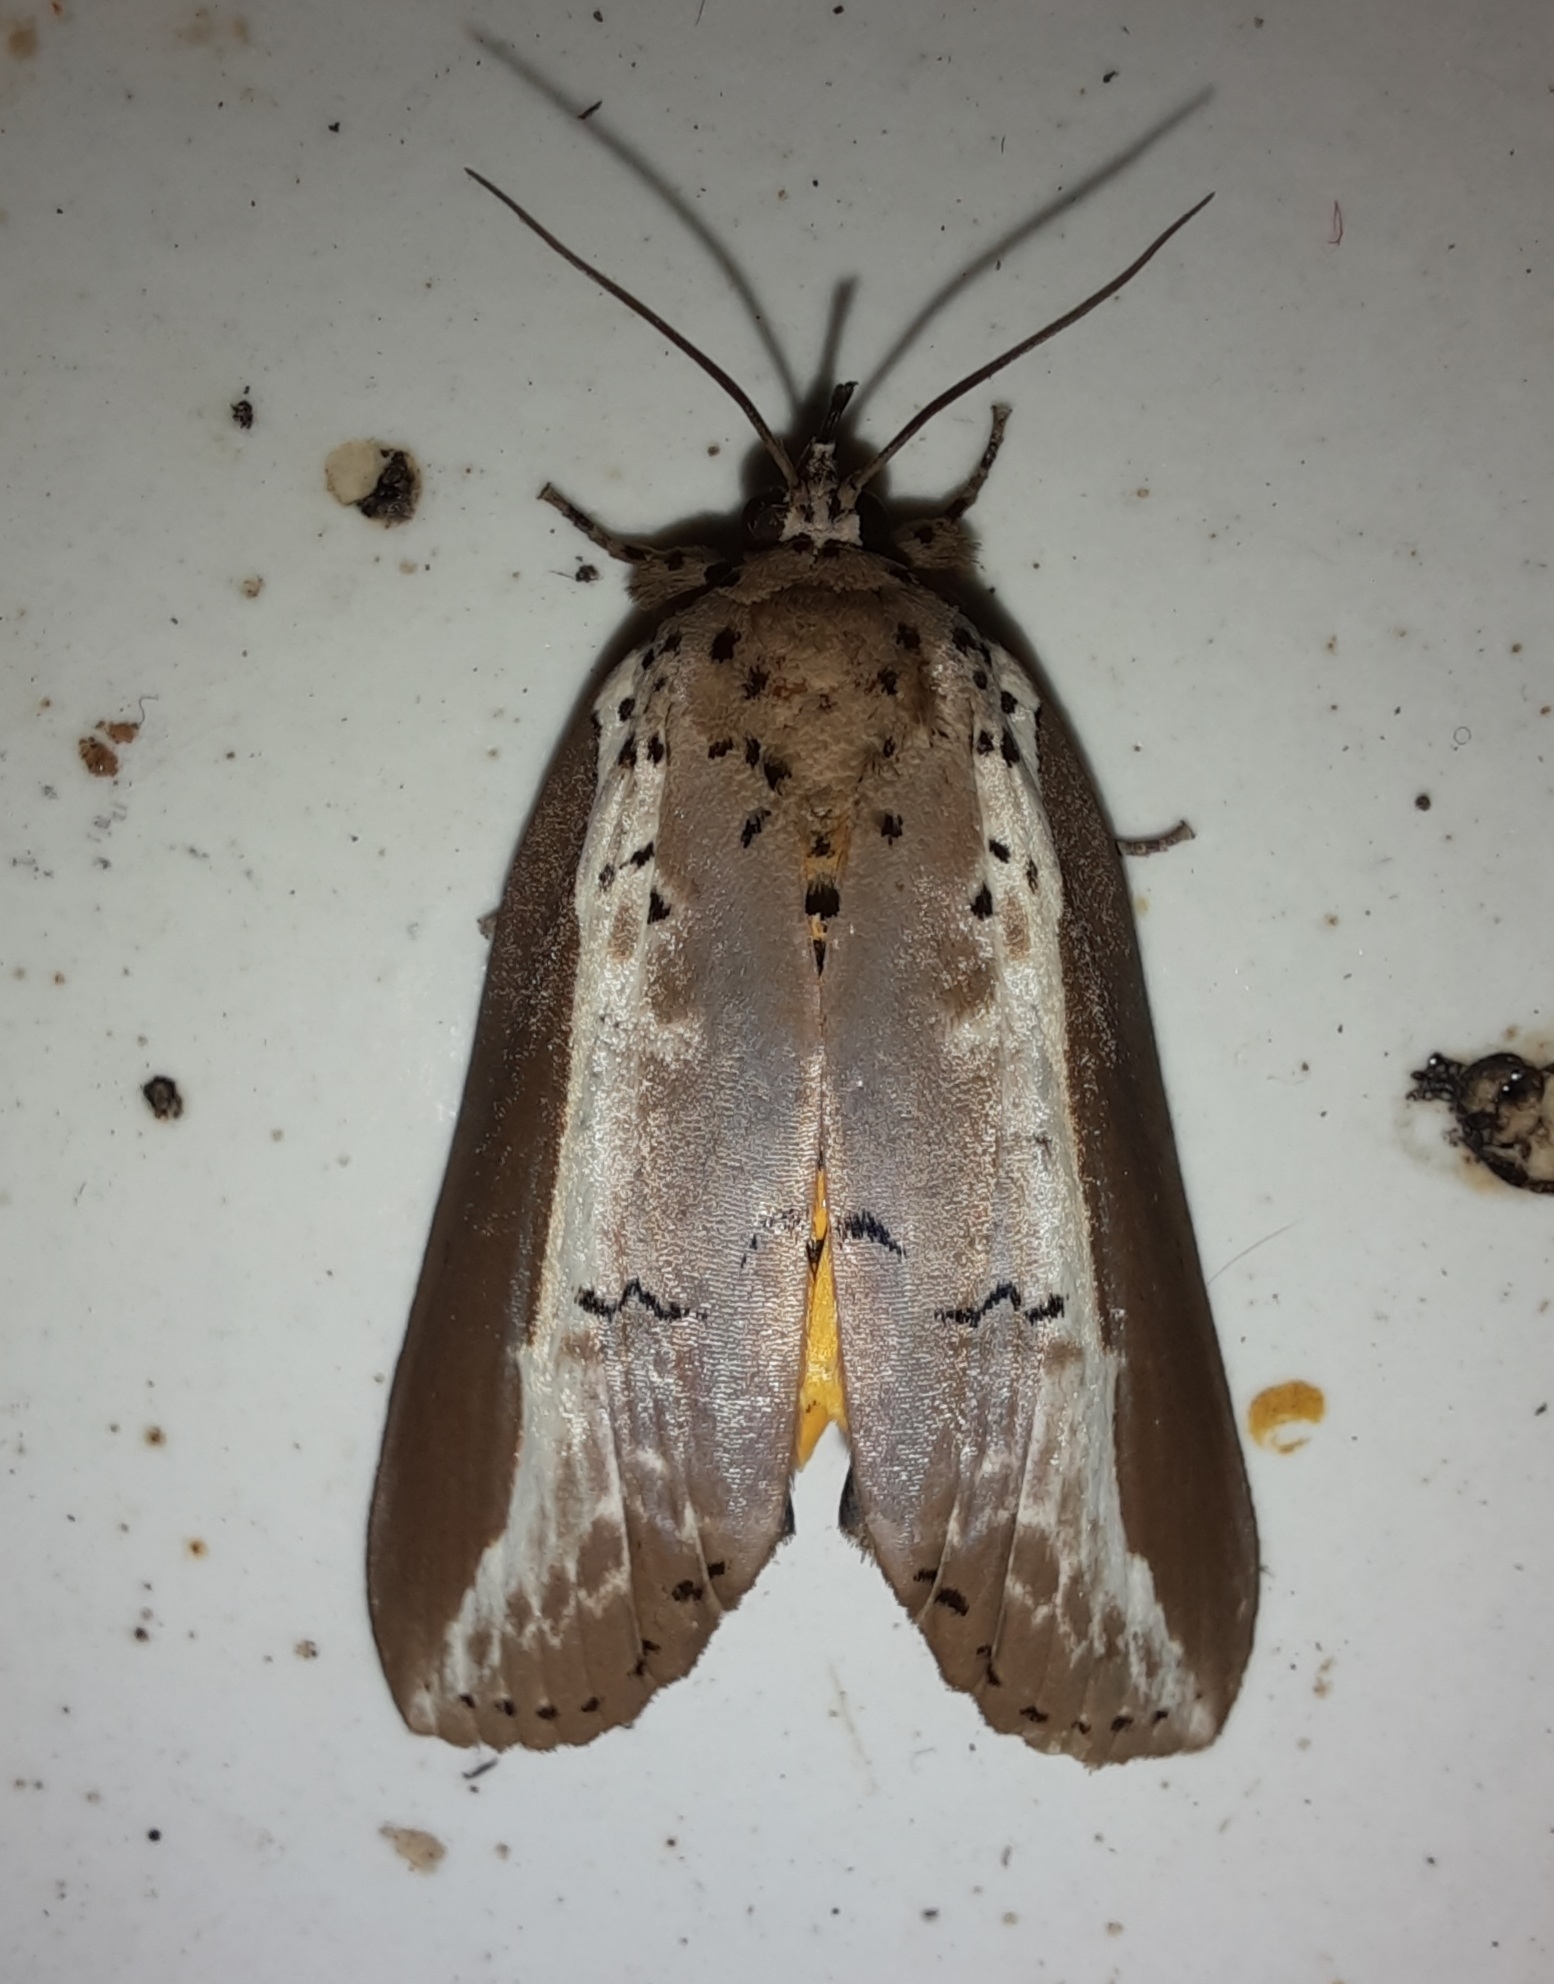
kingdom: Animalia
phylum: Arthropoda
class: Insecta
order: Lepidoptera
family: Nolidae
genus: Eligma
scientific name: Eligma narcissus
